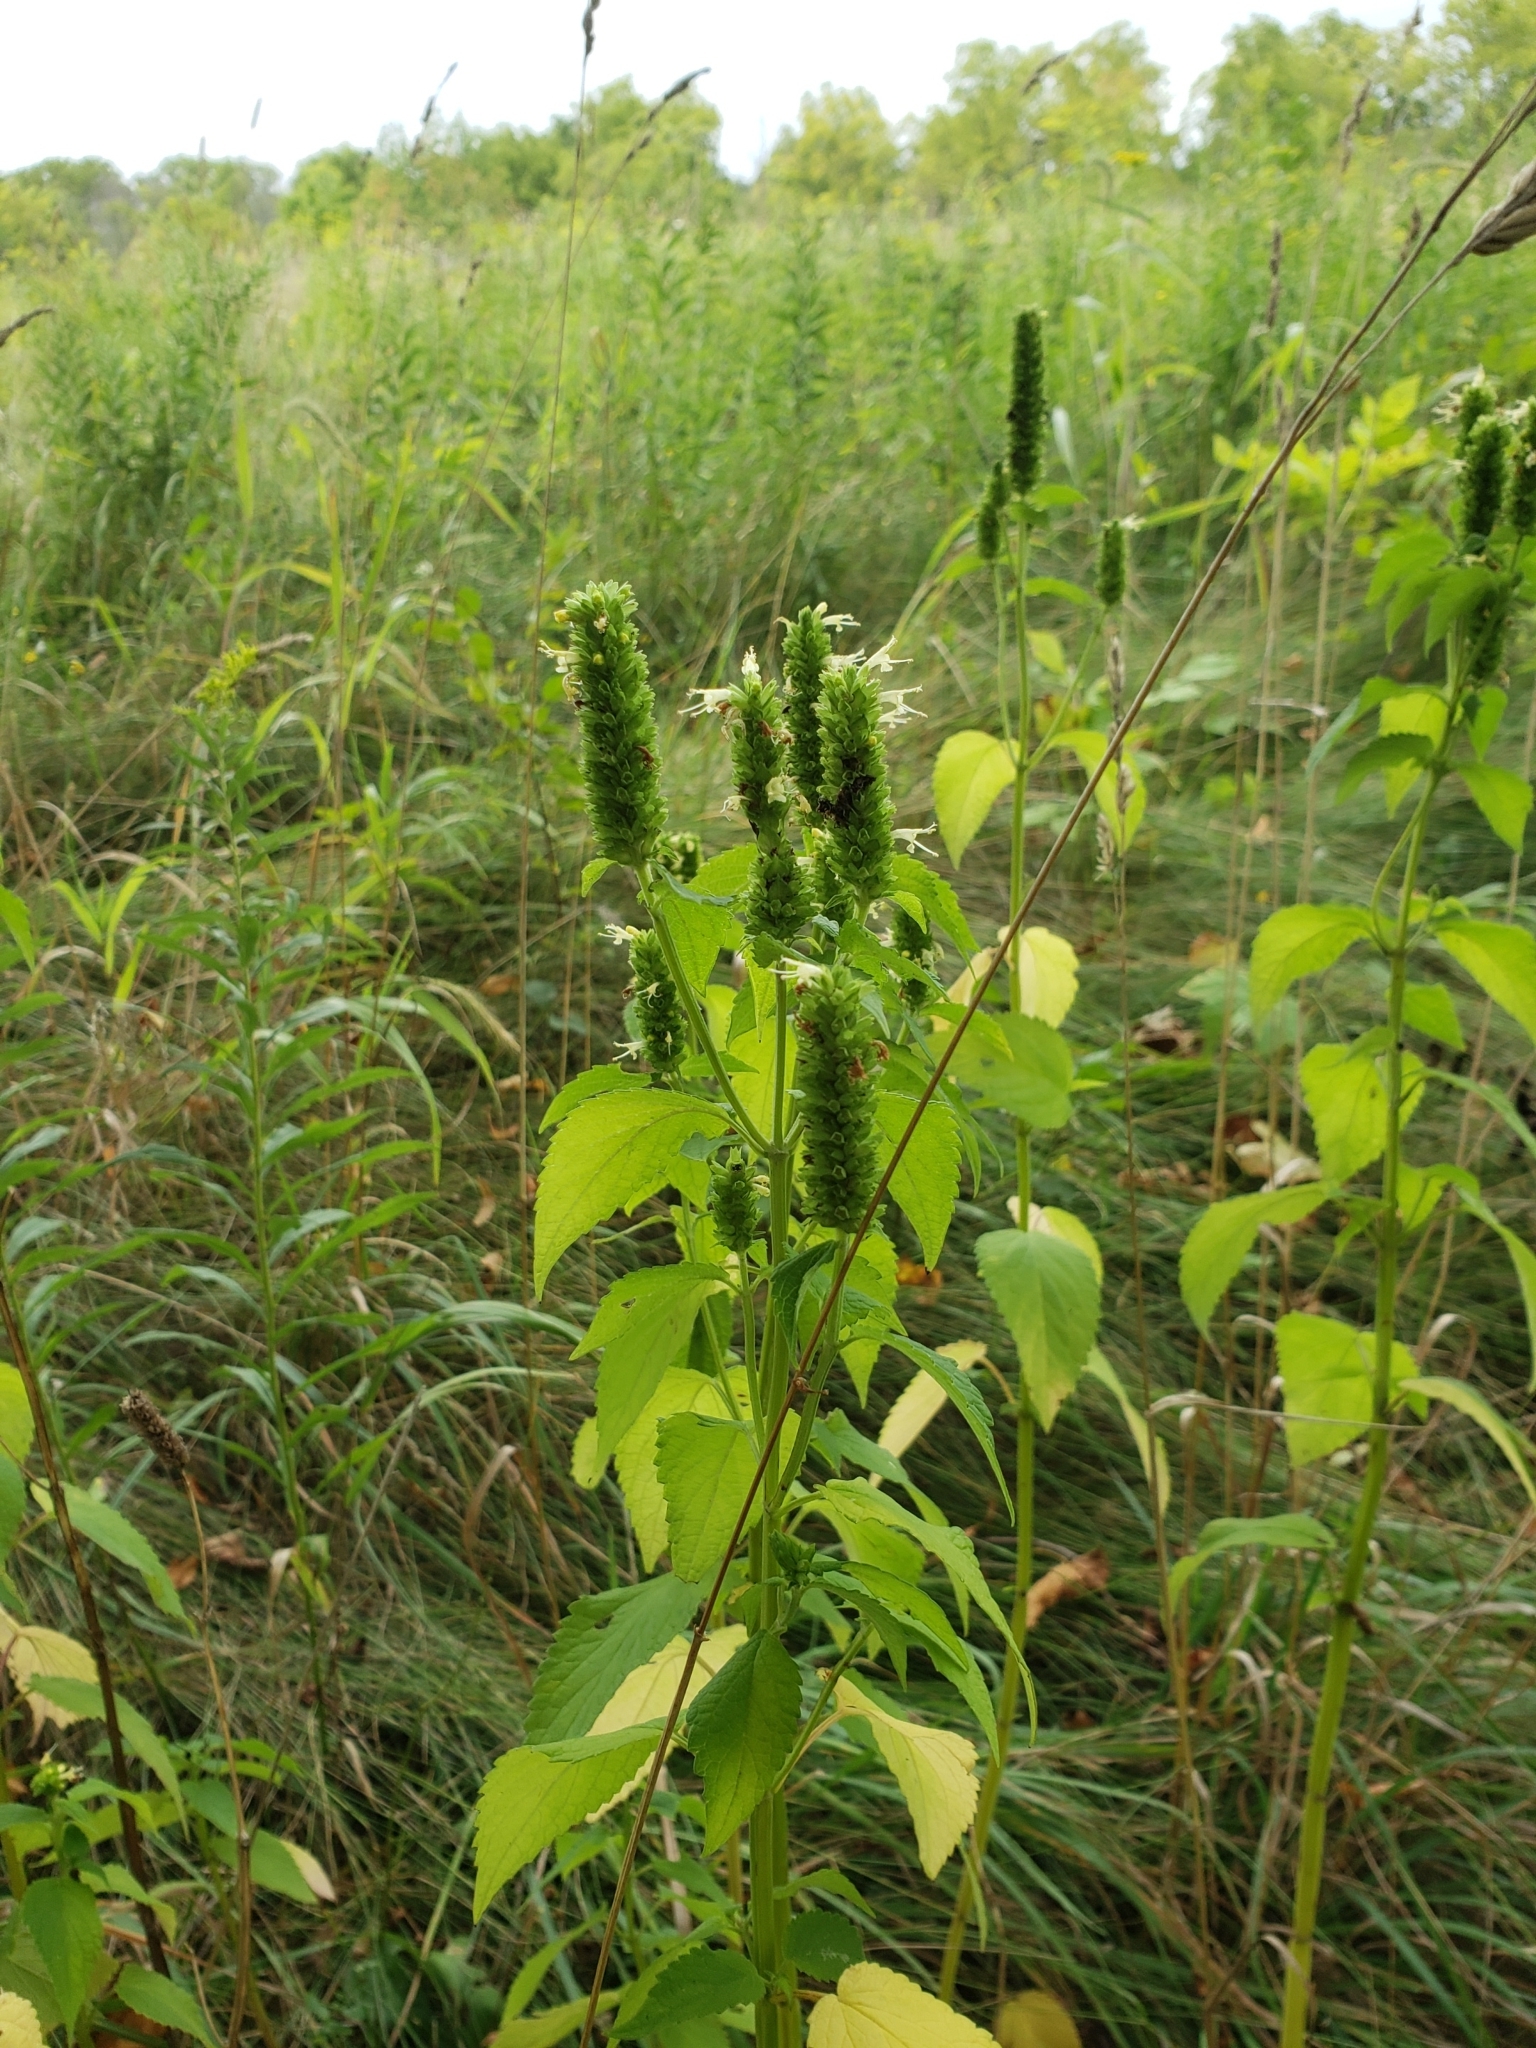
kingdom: Plantae
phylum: Tracheophyta
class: Magnoliopsida
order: Lamiales
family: Lamiaceae
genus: Agastache
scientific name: Agastache nepetoides
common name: Catnip giant hyssop
